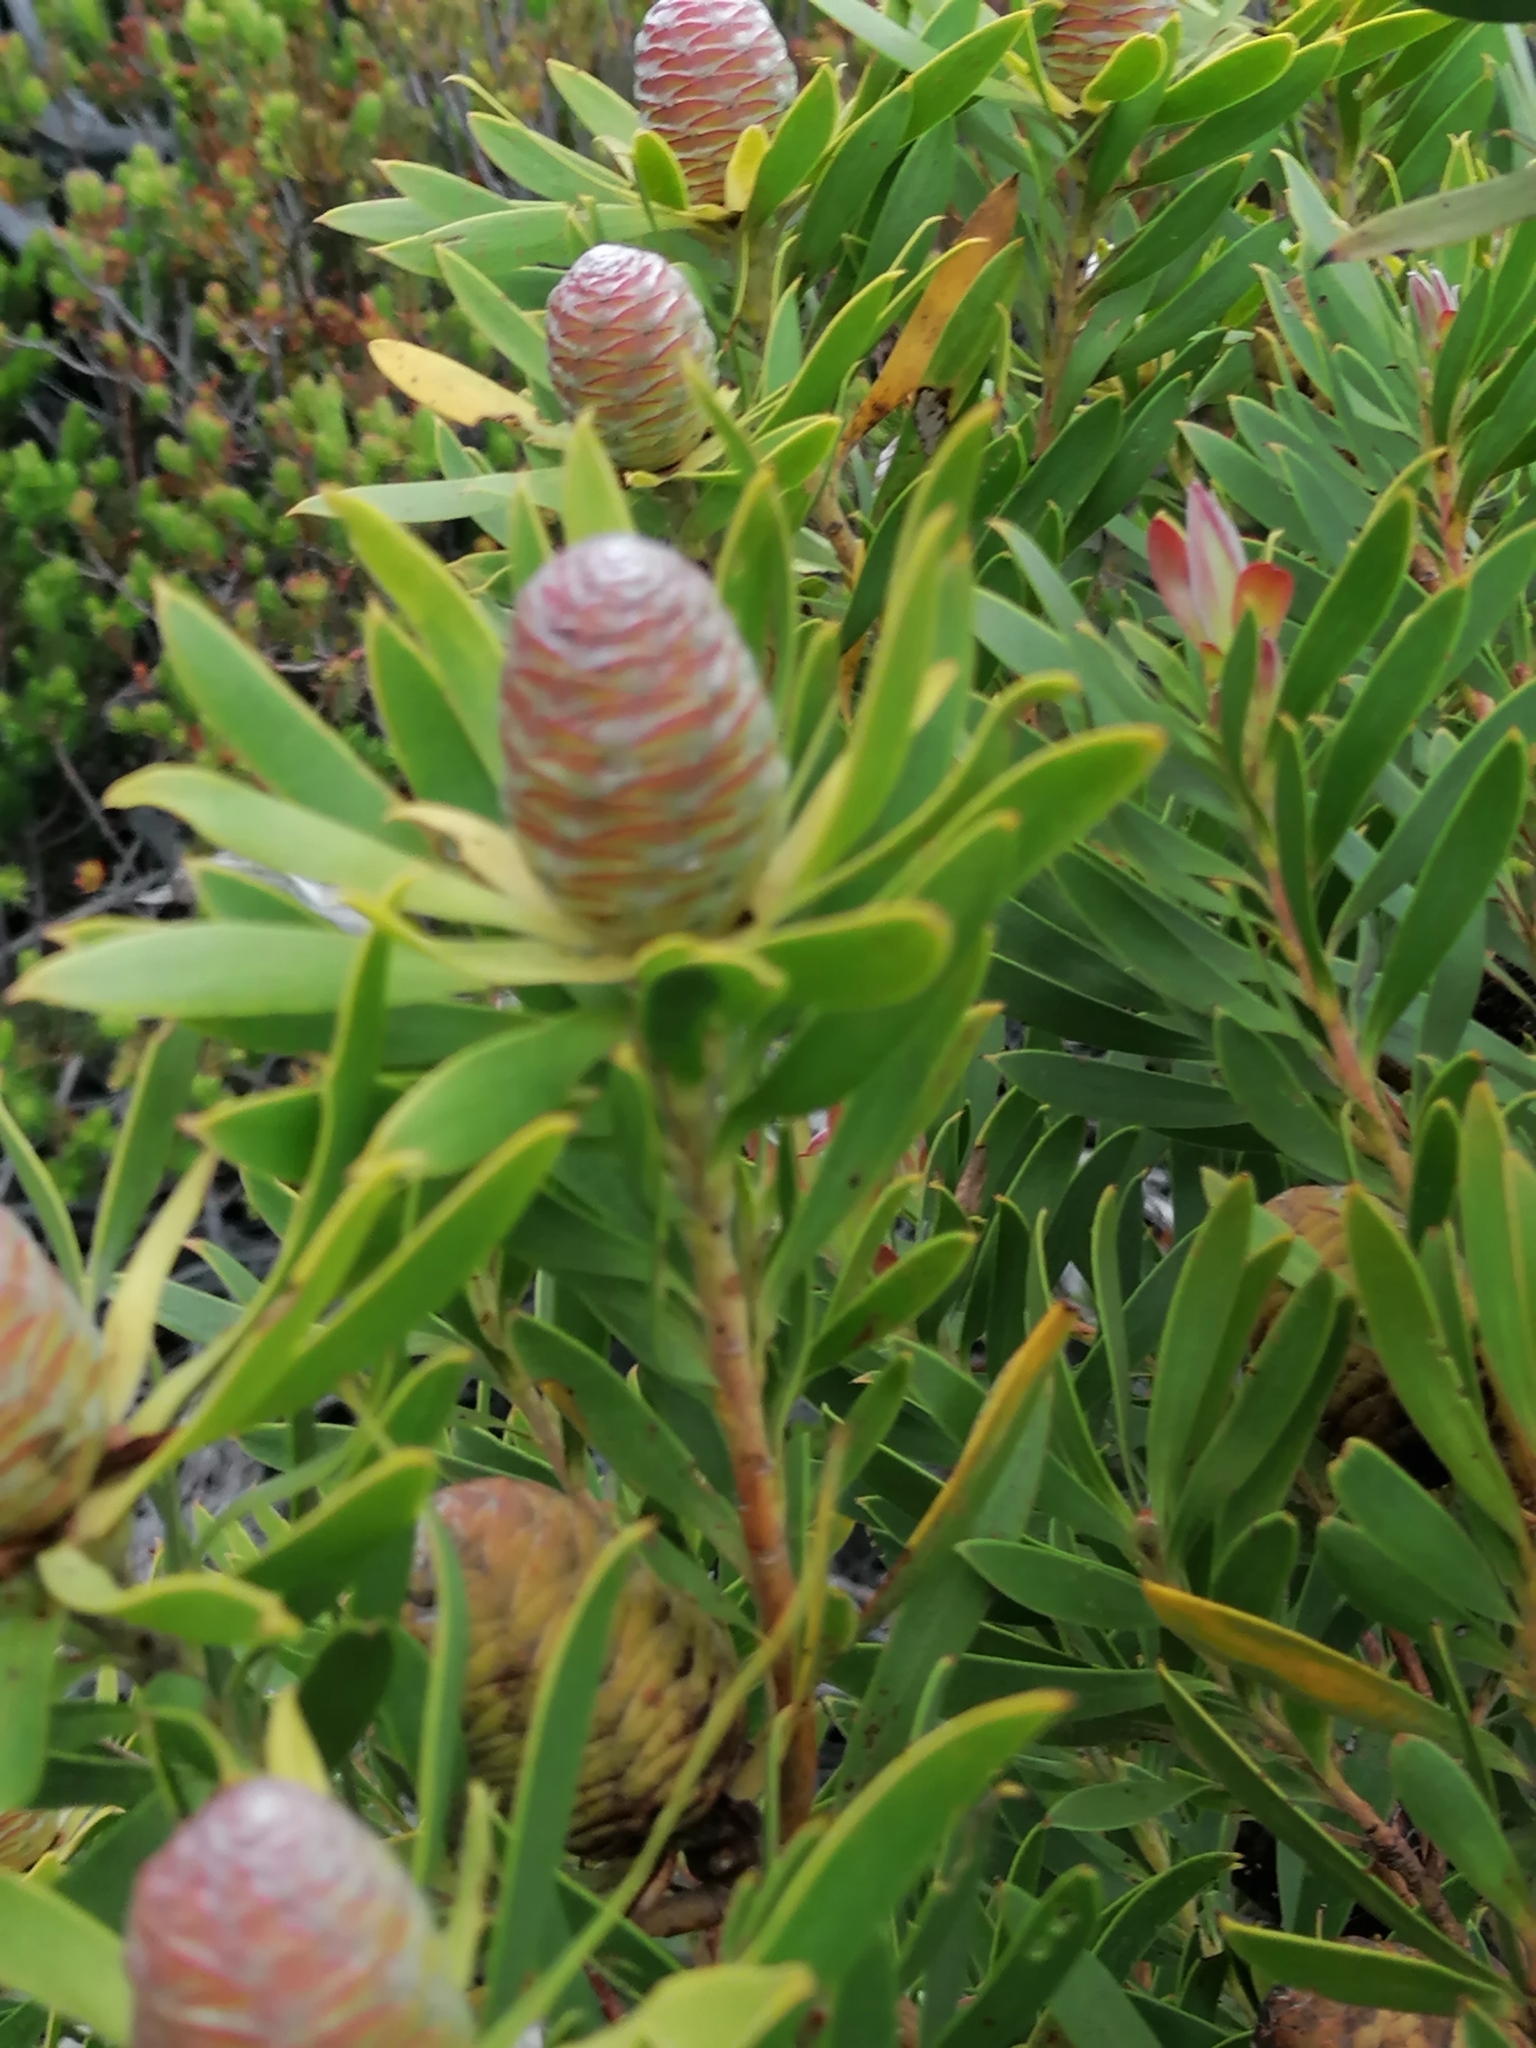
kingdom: Plantae
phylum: Tracheophyta
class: Magnoliopsida
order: Proteales
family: Proteaceae
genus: Leucadendron
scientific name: Leucadendron coniferum
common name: Dune conebush
